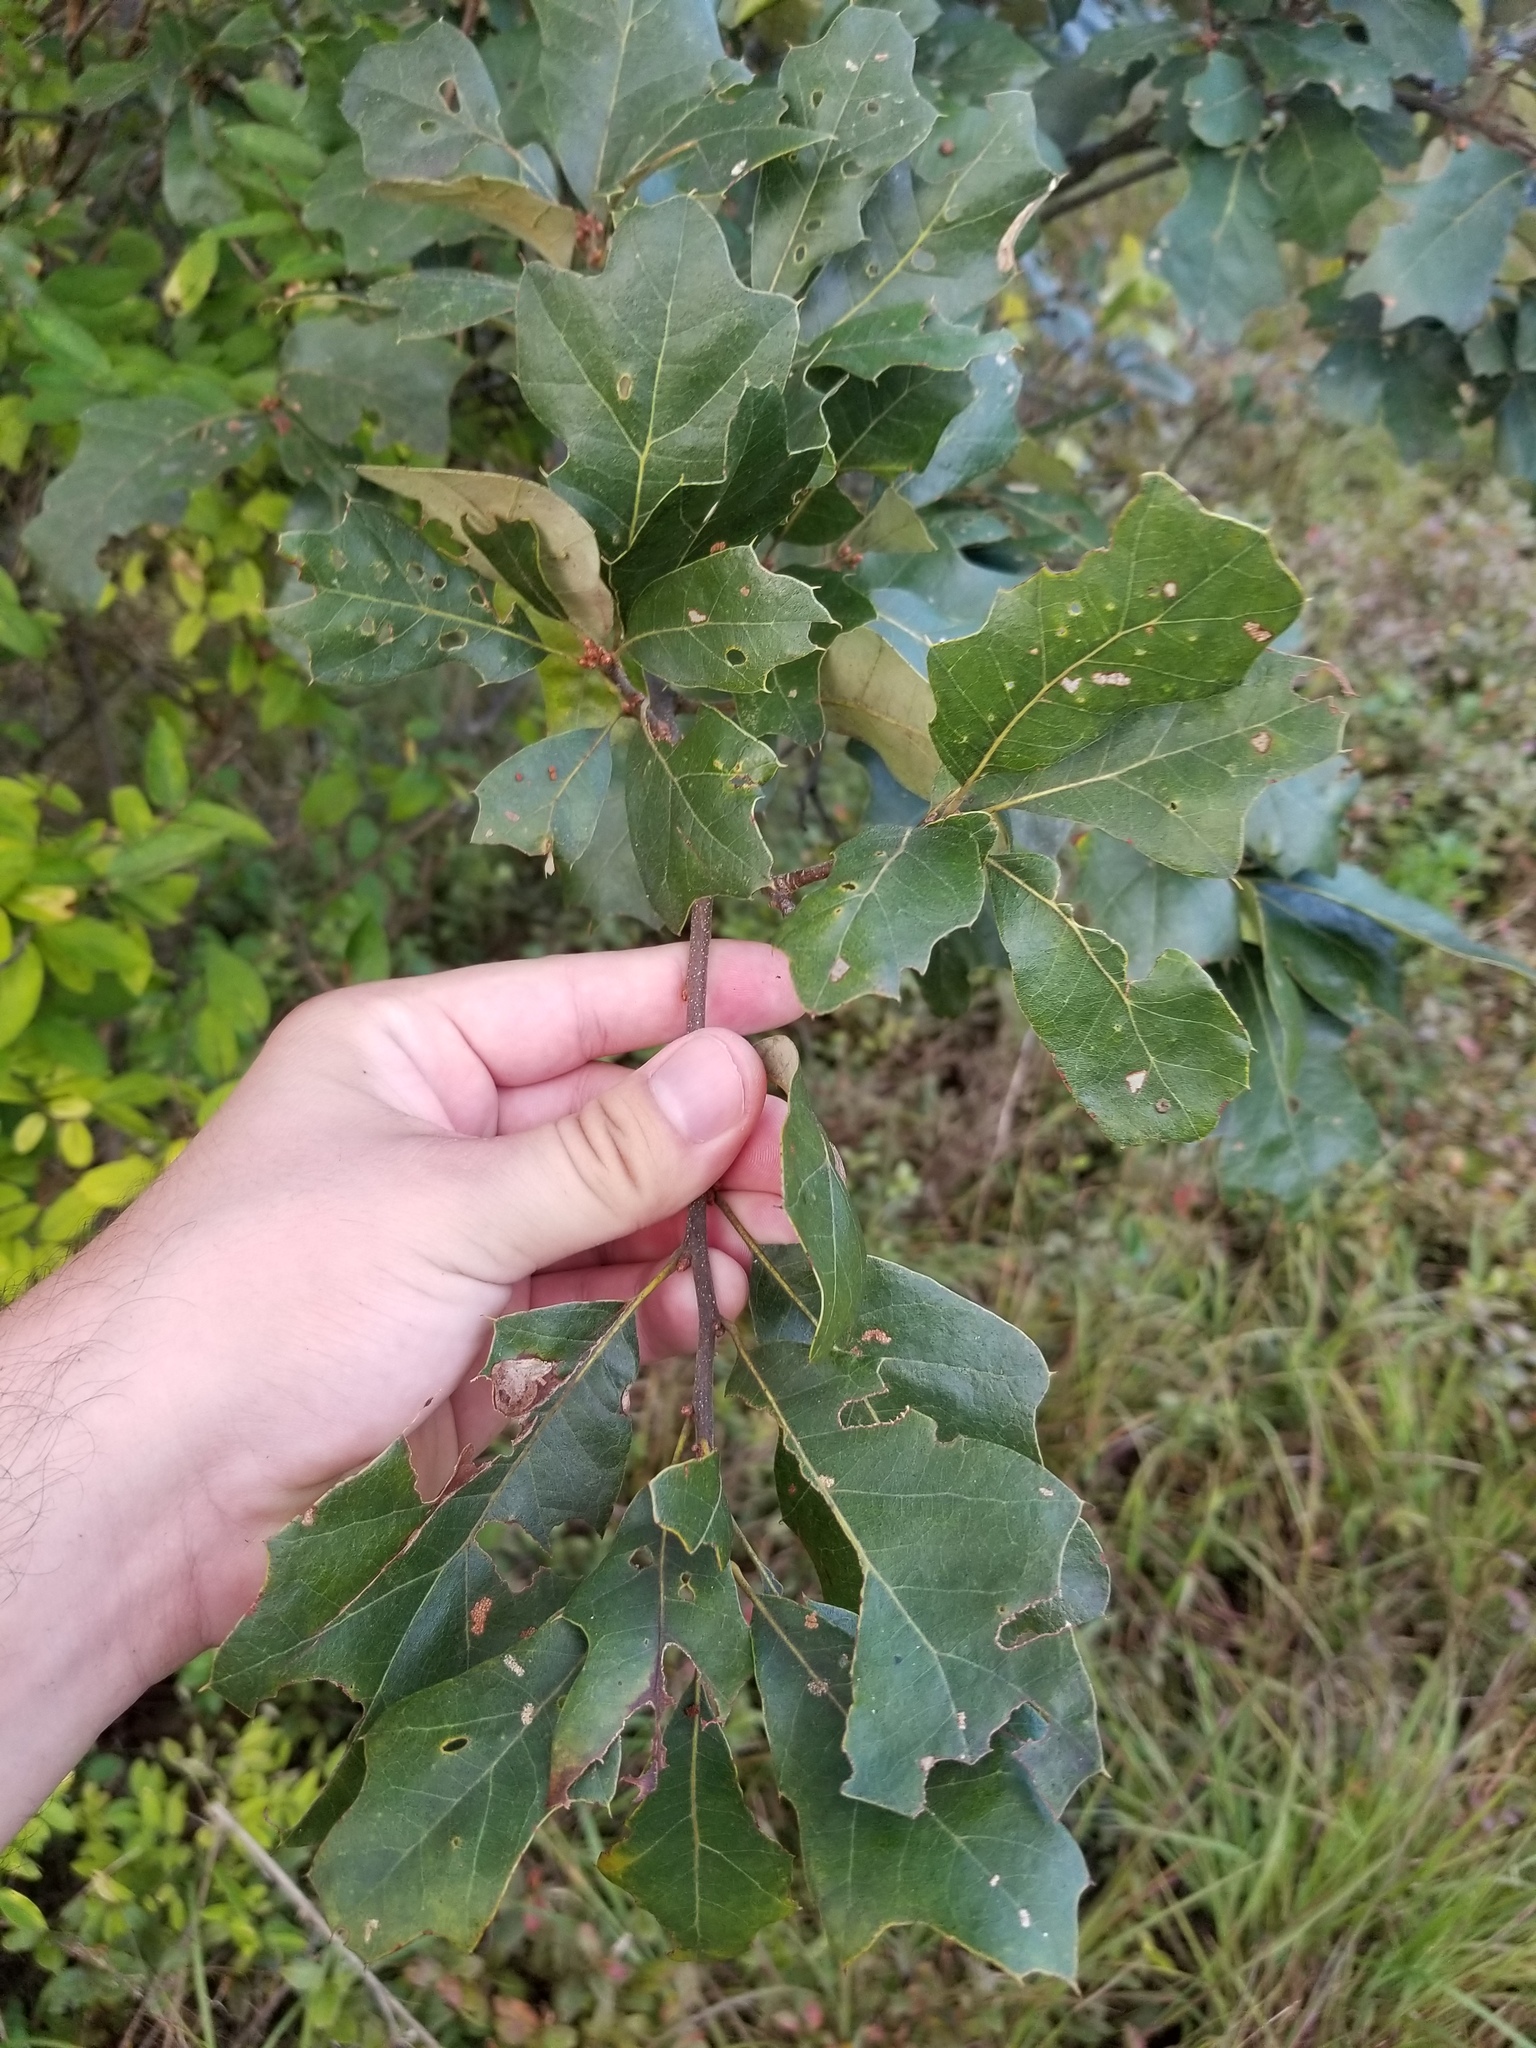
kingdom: Plantae
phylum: Tracheophyta
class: Magnoliopsida
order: Fagales
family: Fagaceae
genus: Quercus
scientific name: Quercus ilicifolia
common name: Bear oak
